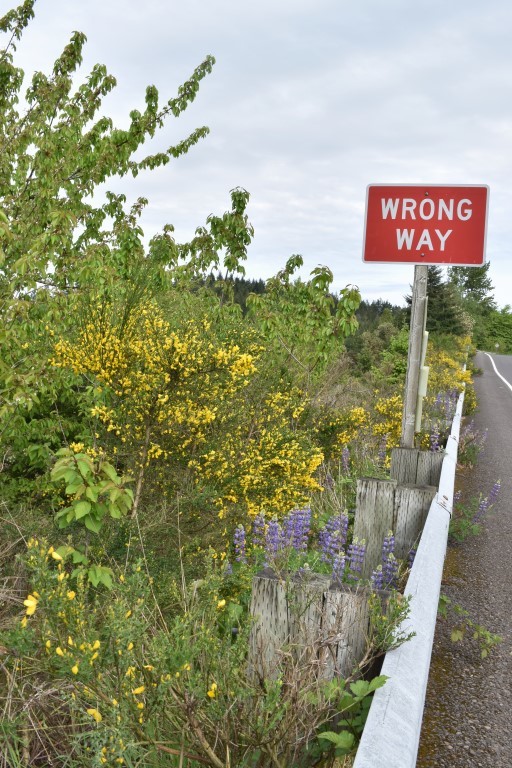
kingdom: Plantae
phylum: Tracheophyta
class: Magnoliopsida
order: Fabales
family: Fabaceae
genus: Lupinus
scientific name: Lupinus rivularis
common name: Riverbank lupine
